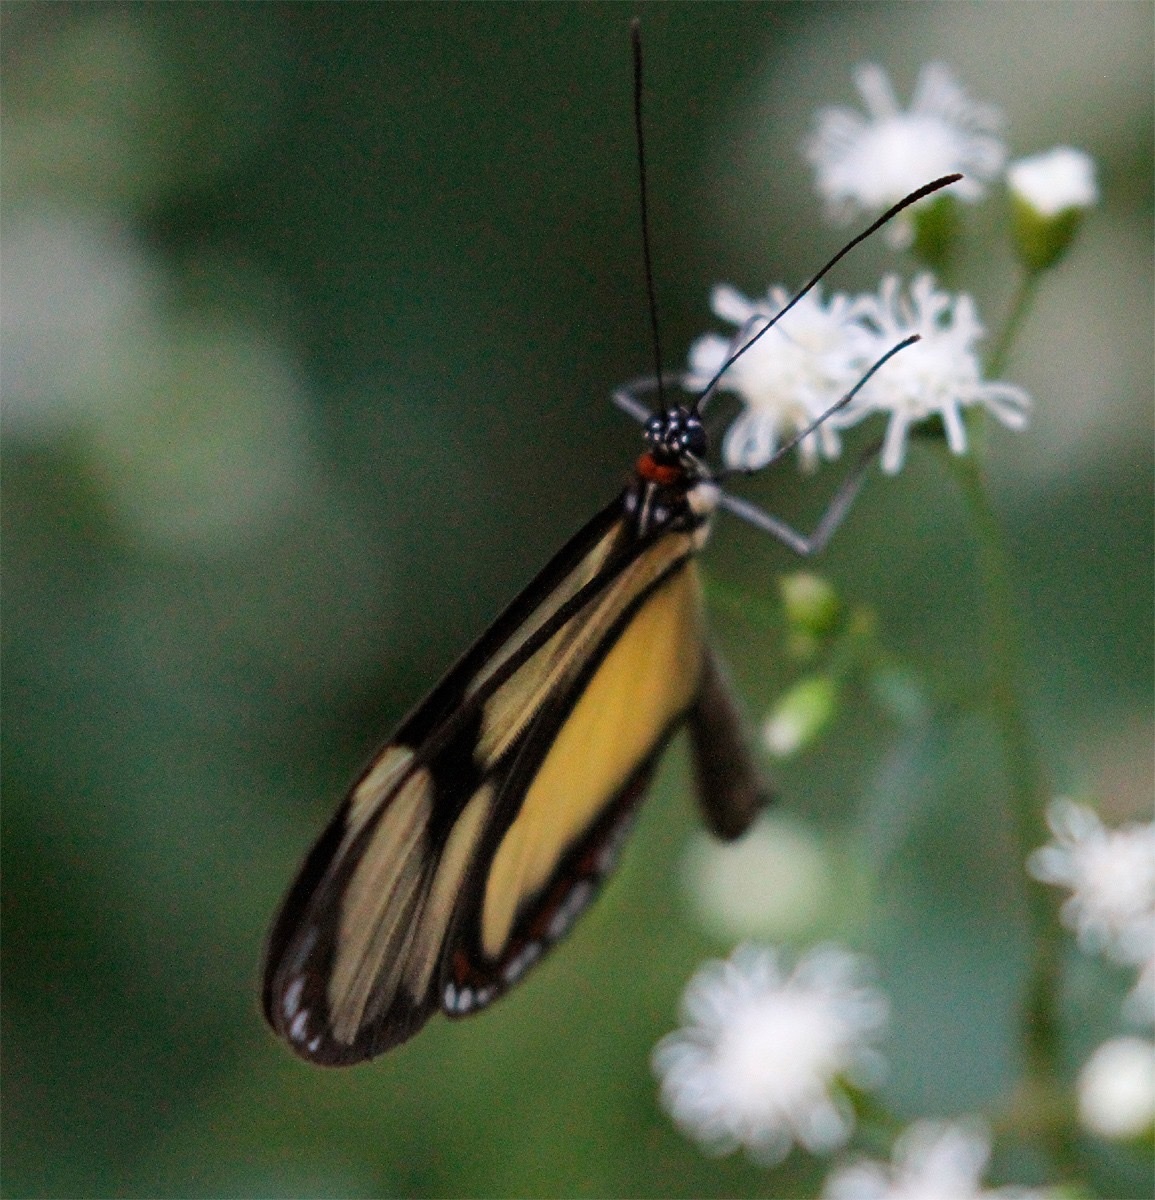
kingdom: Animalia
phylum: Arthropoda
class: Insecta
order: Lepidoptera
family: Nymphalidae
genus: Epityches
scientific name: Epityches eupompe
